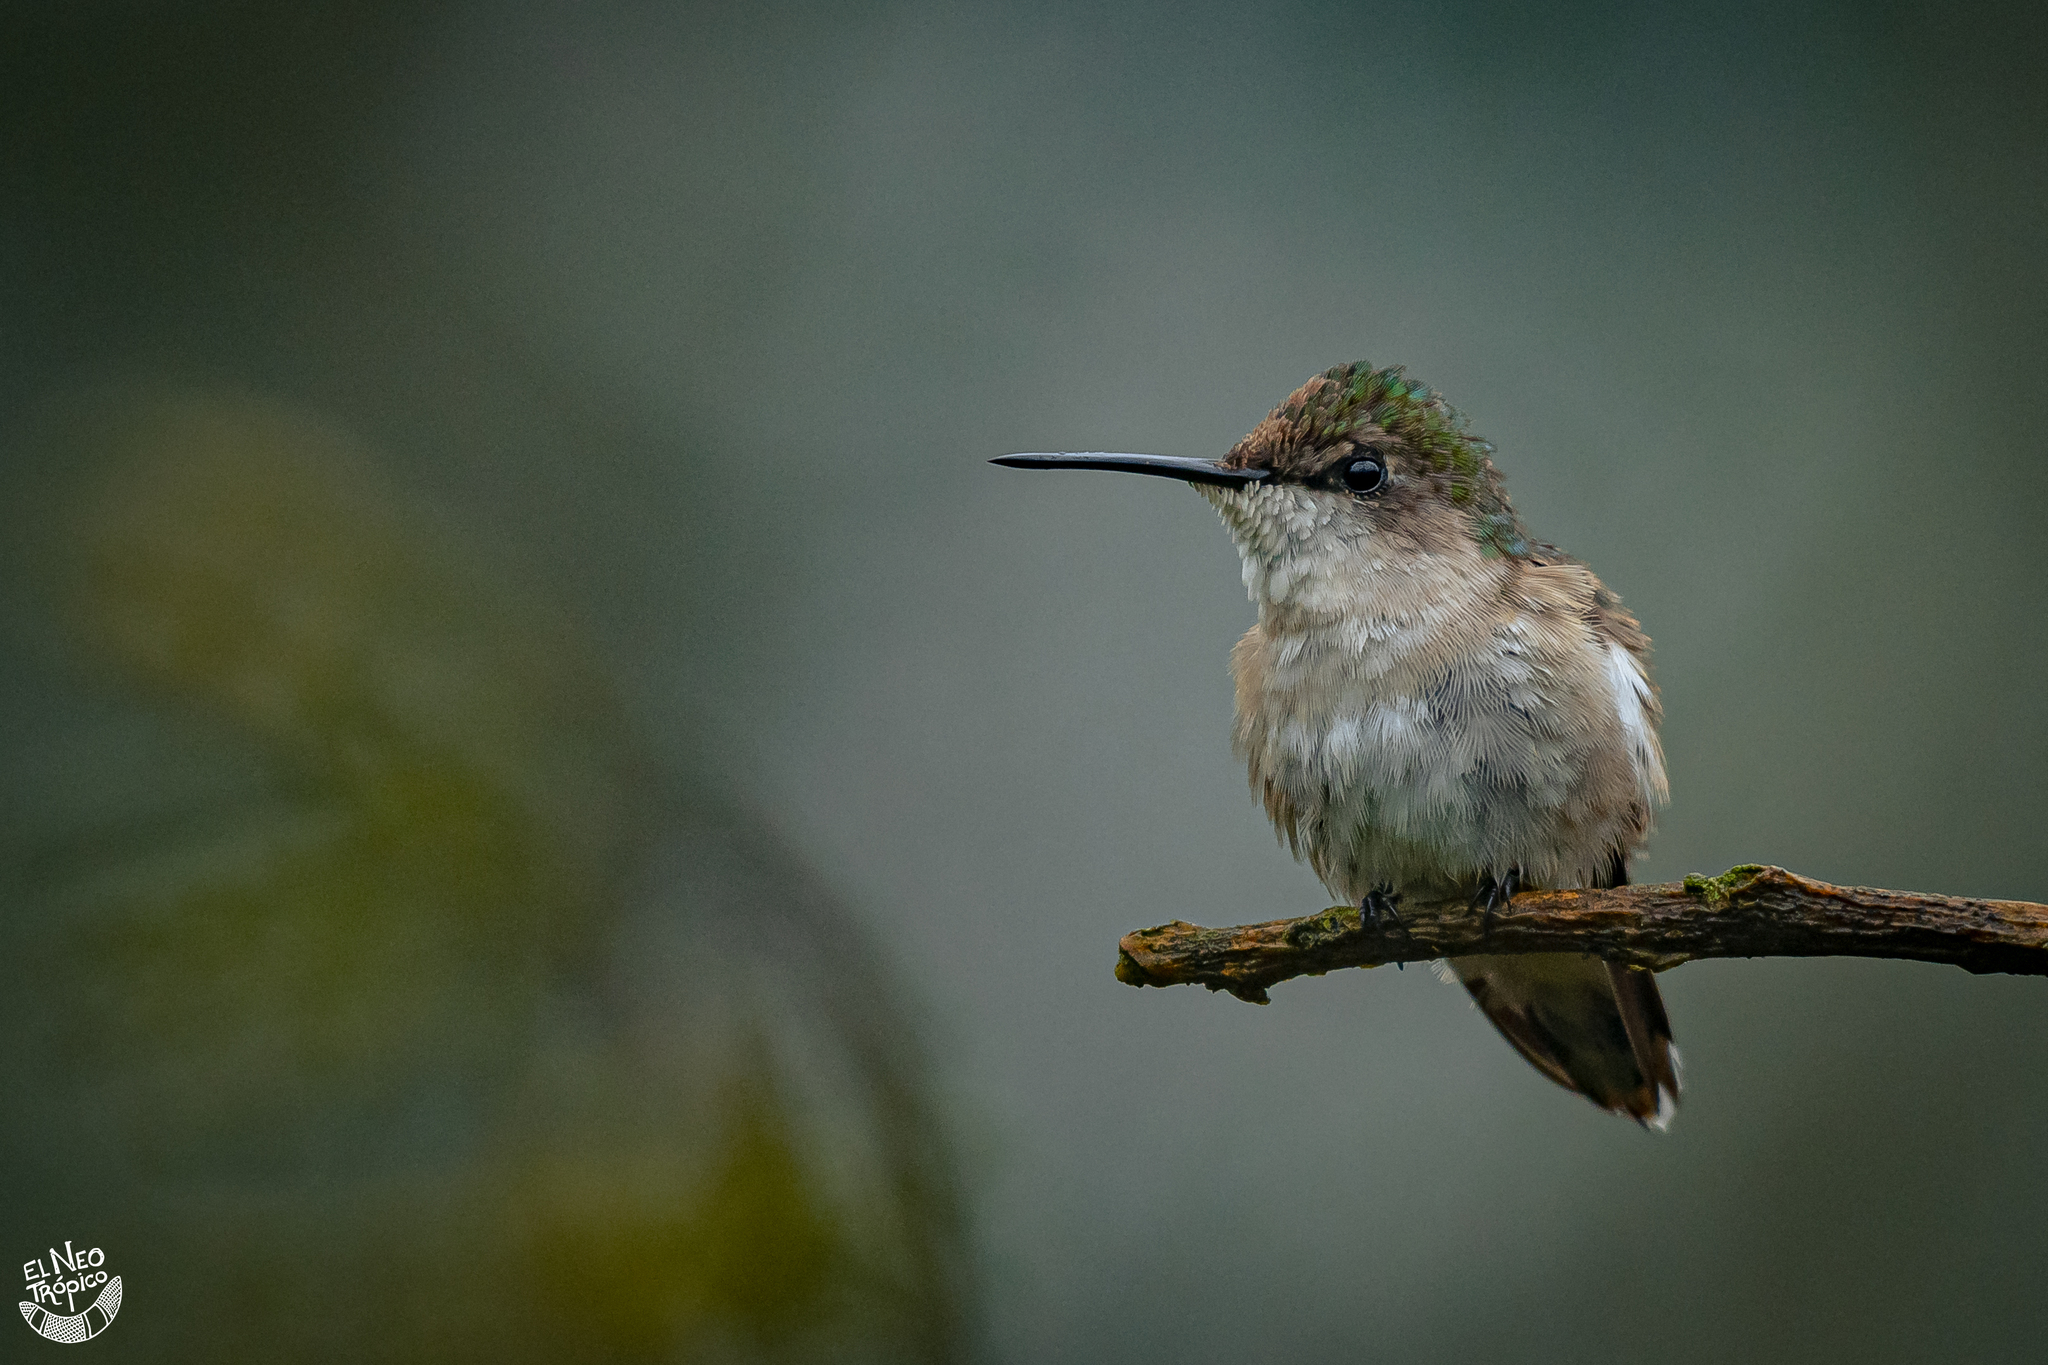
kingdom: Animalia
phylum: Chordata
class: Aves
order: Apodiformes
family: Trochilidae
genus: Archilochus
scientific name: Archilochus colubris
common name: Ruby-throated hummingbird
